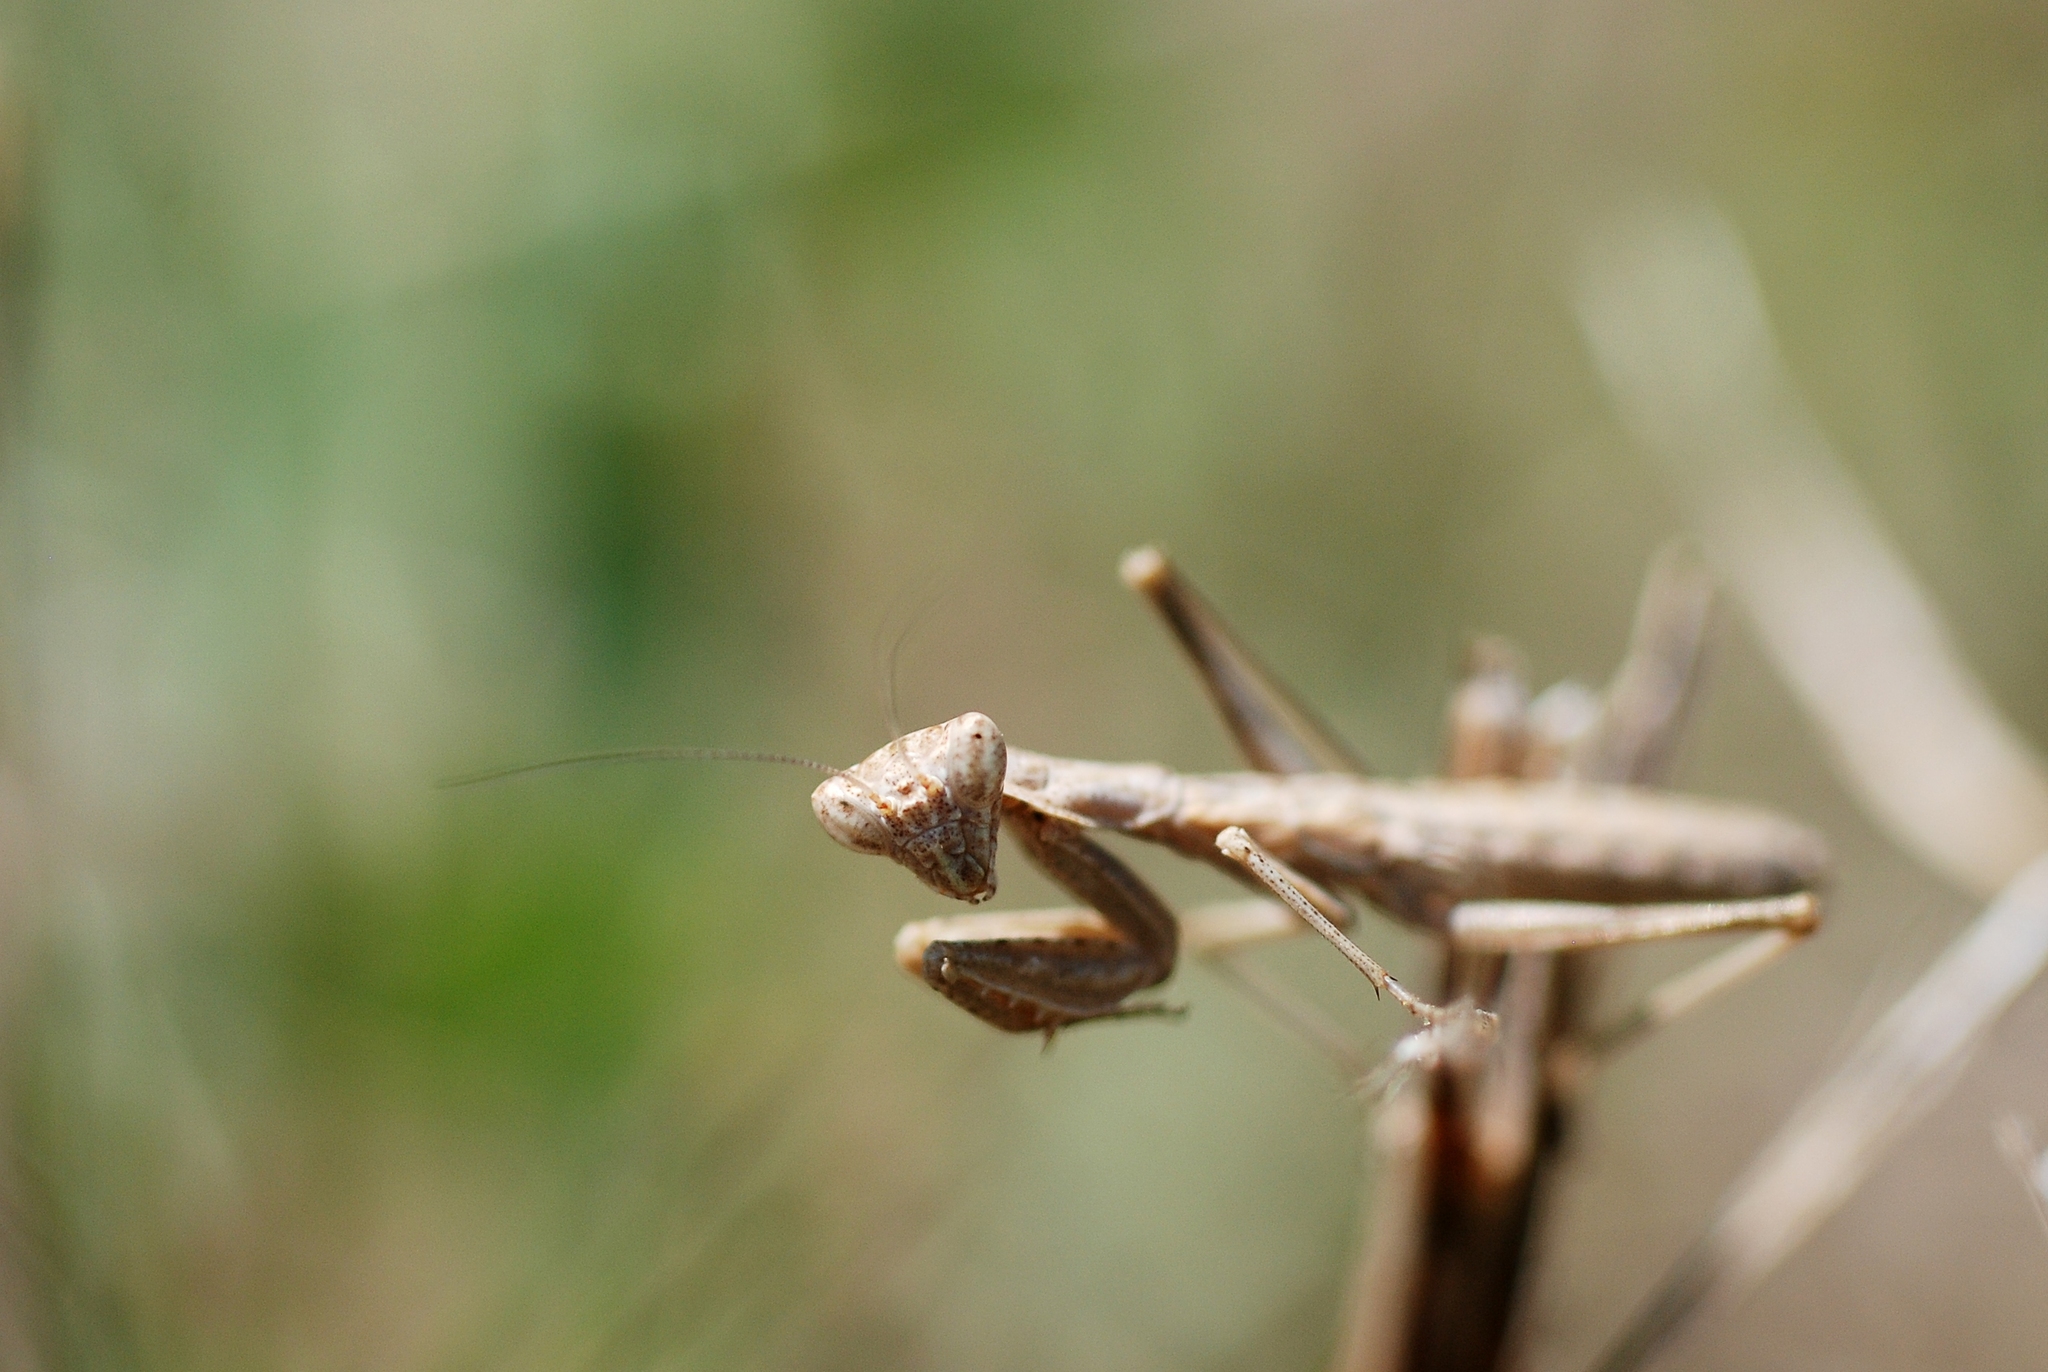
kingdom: Animalia
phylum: Arthropoda
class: Insecta
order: Mantodea
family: Amelidae
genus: Ameles
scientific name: Ameles decolor
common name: Dwarf mantis
